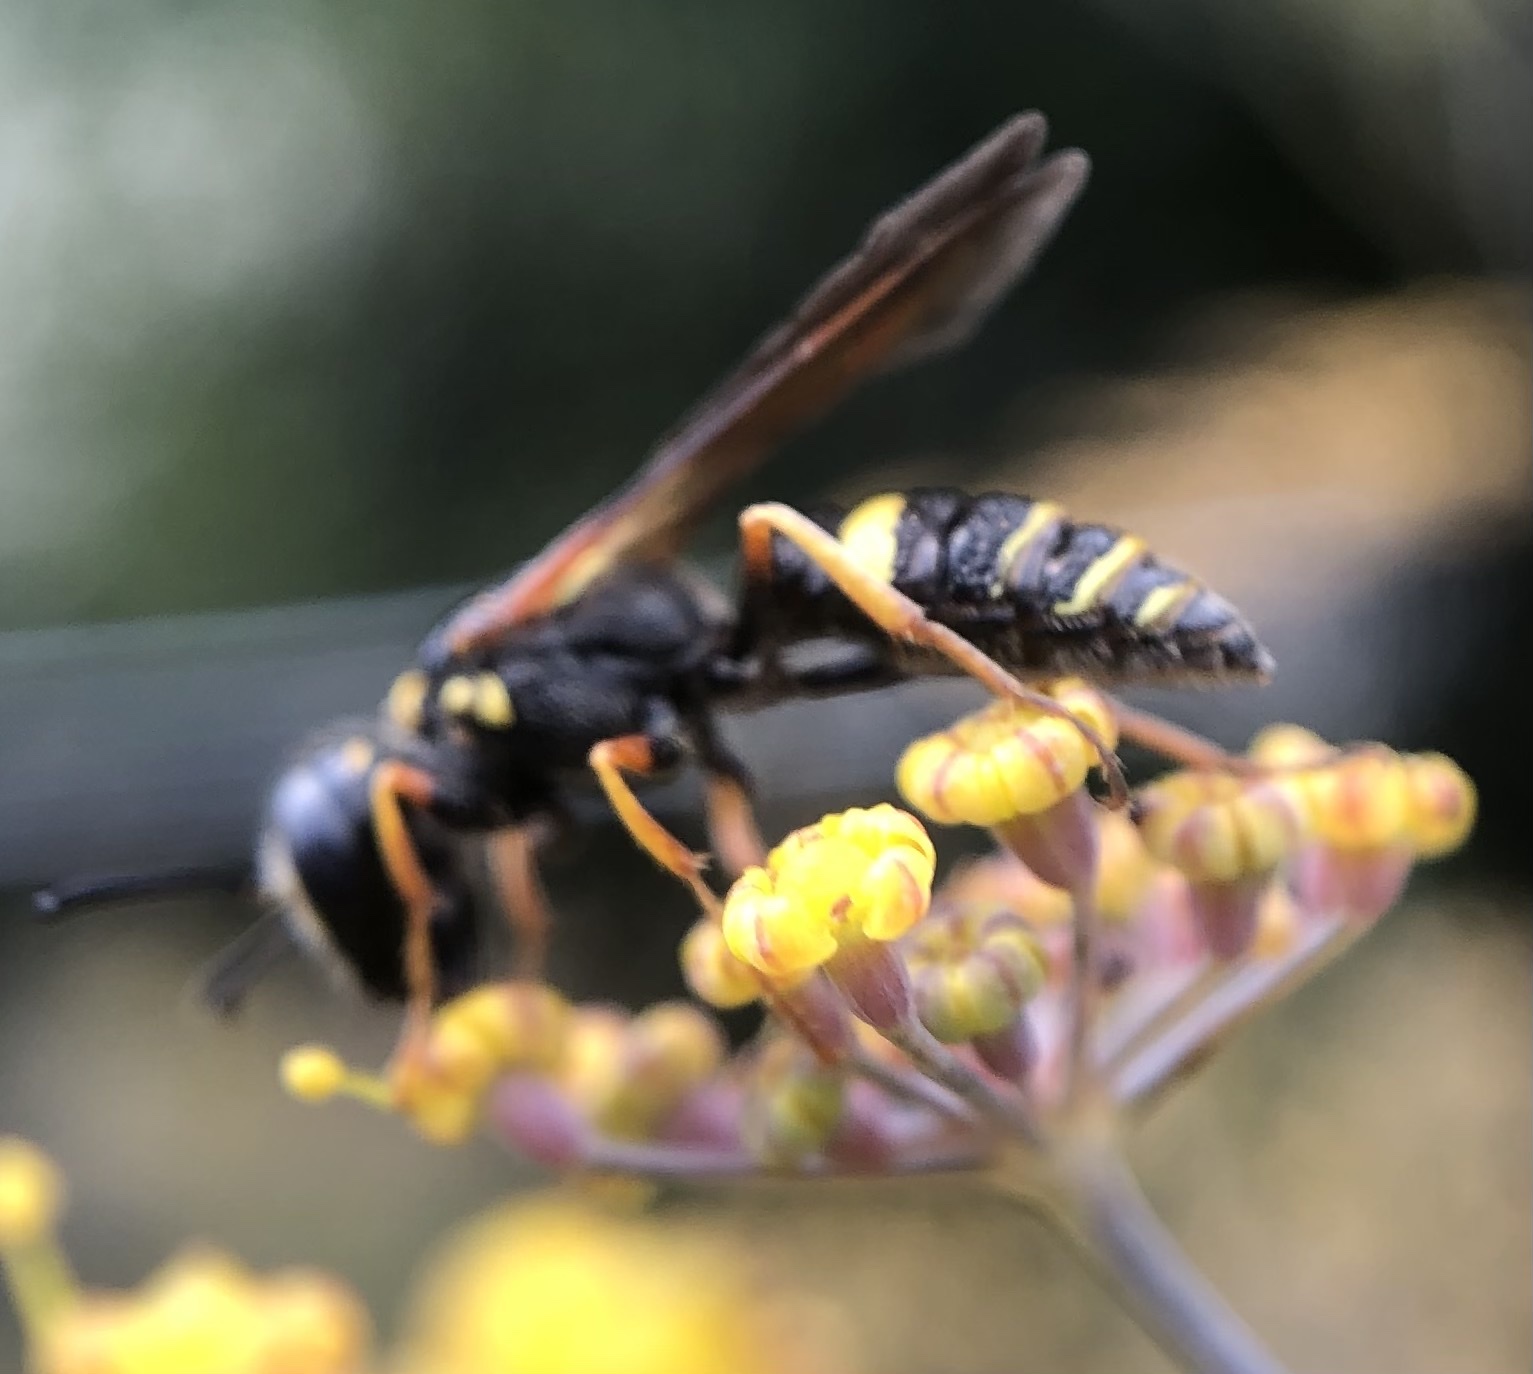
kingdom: Animalia
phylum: Arthropoda
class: Insecta
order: Hymenoptera
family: Crabronidae
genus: Philanthus
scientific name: Philanthus gibbosus
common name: Humped beewolf
